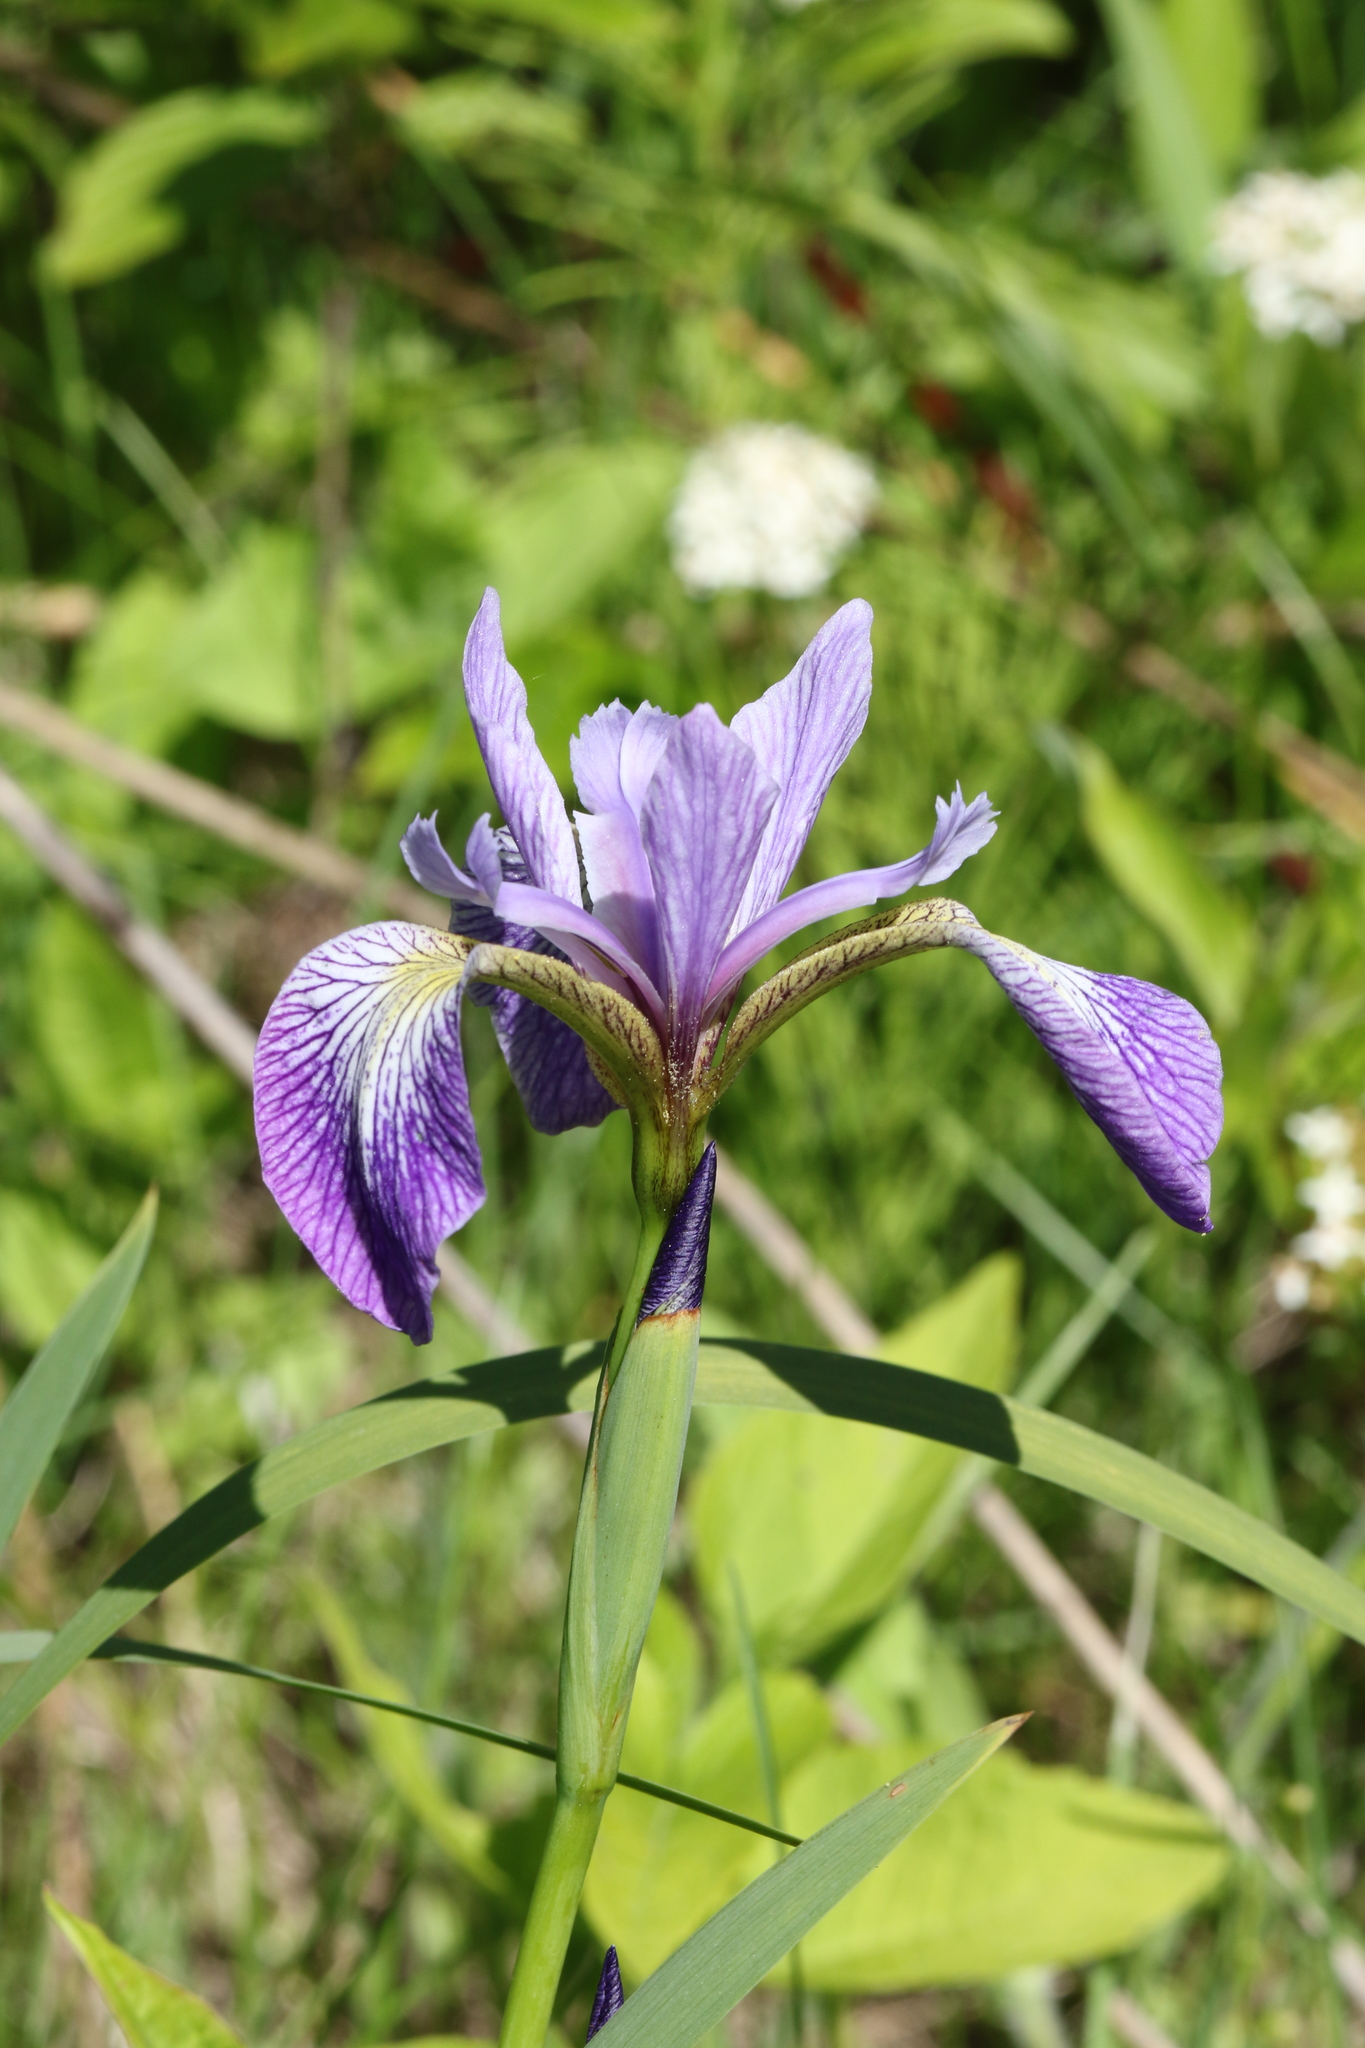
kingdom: Plantae
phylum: Tracheophyta
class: Liliopsida
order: Asparagales
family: Iridaceae
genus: Iris
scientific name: Iris versicolor
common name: Purple iris
